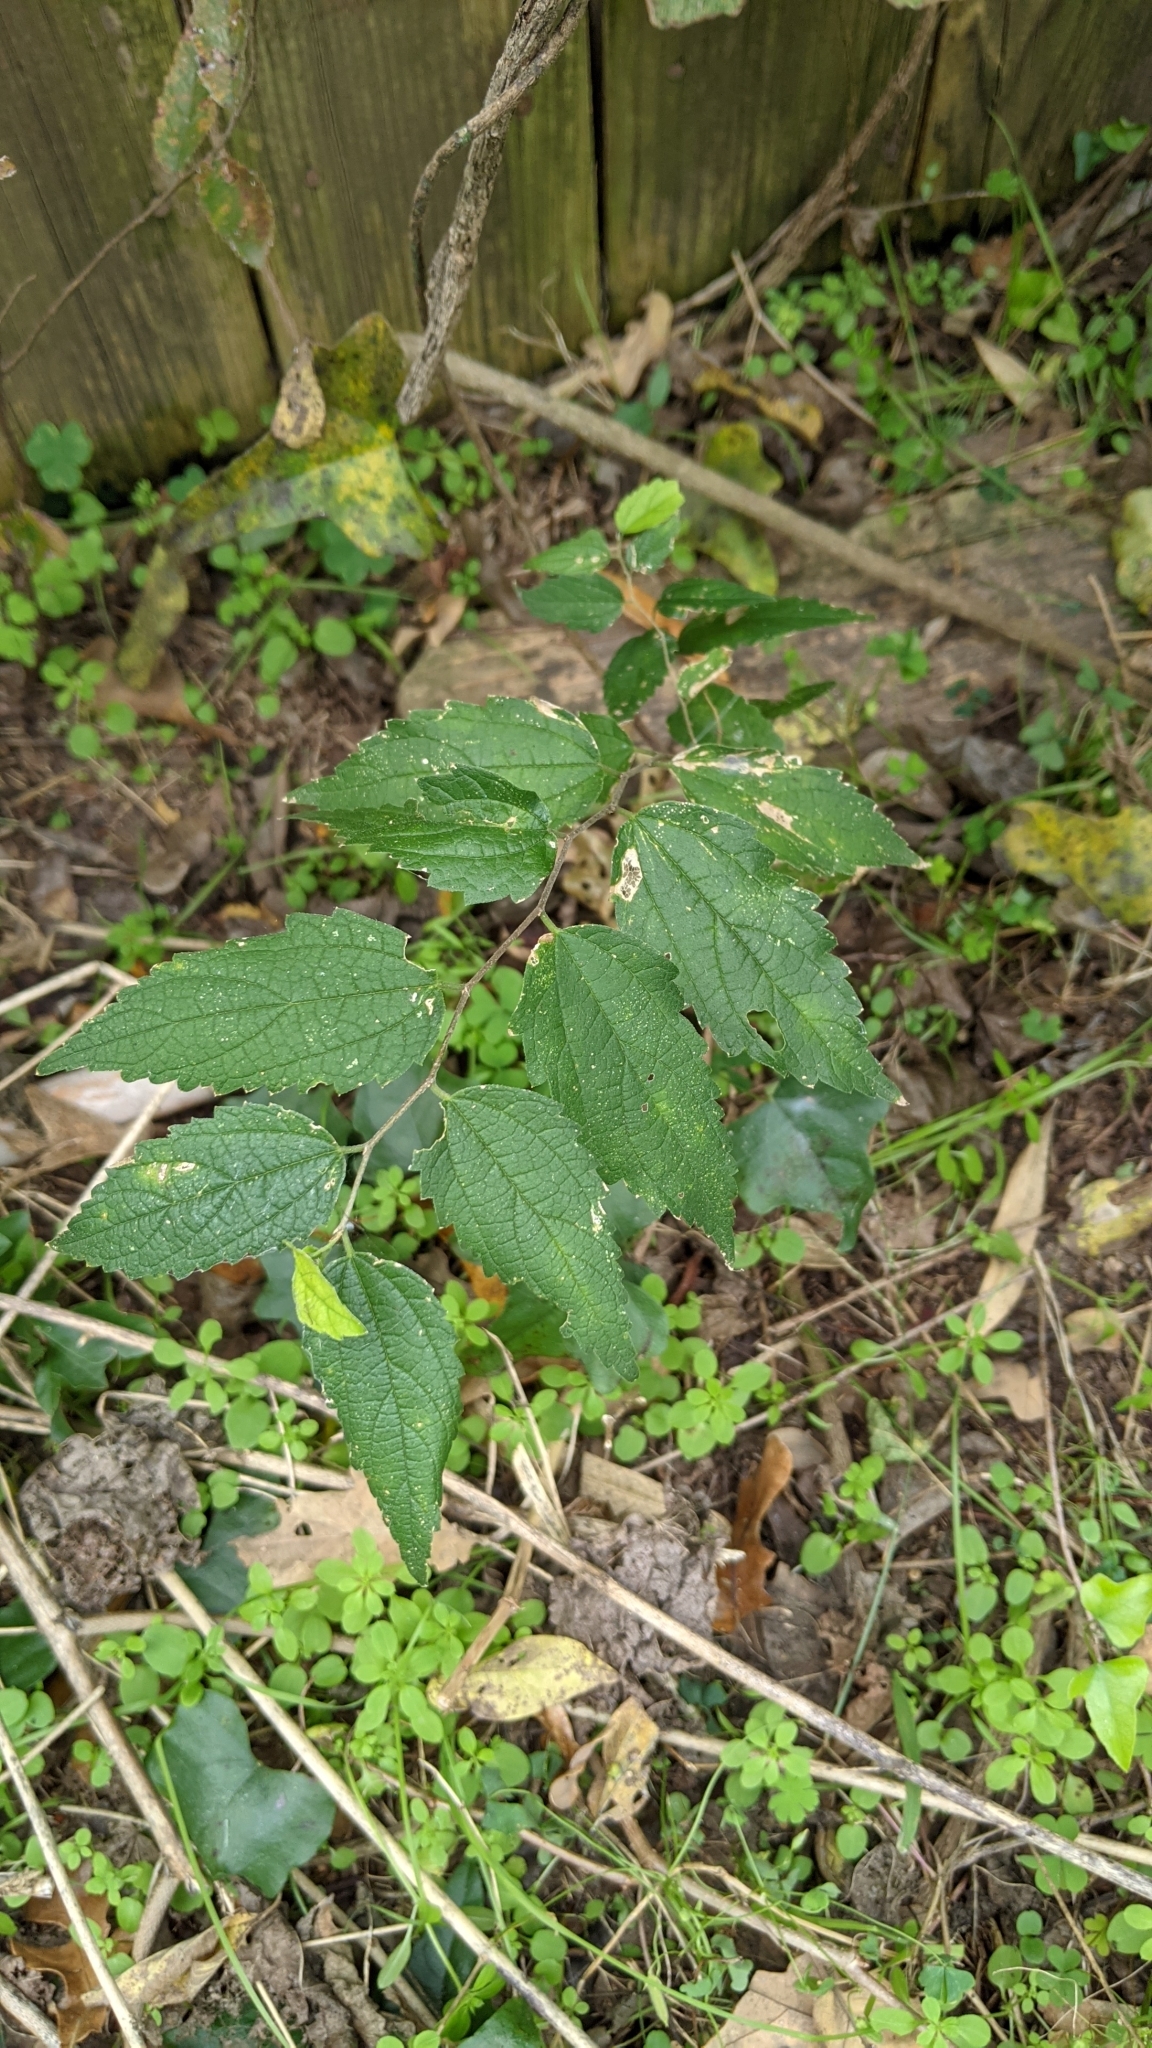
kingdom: Plantae
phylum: Tracheophyta
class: Magnoliopsida
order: Rosales
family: Cannabaceae
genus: Celtis
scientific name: Celtis laevigata
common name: Sugarberry
